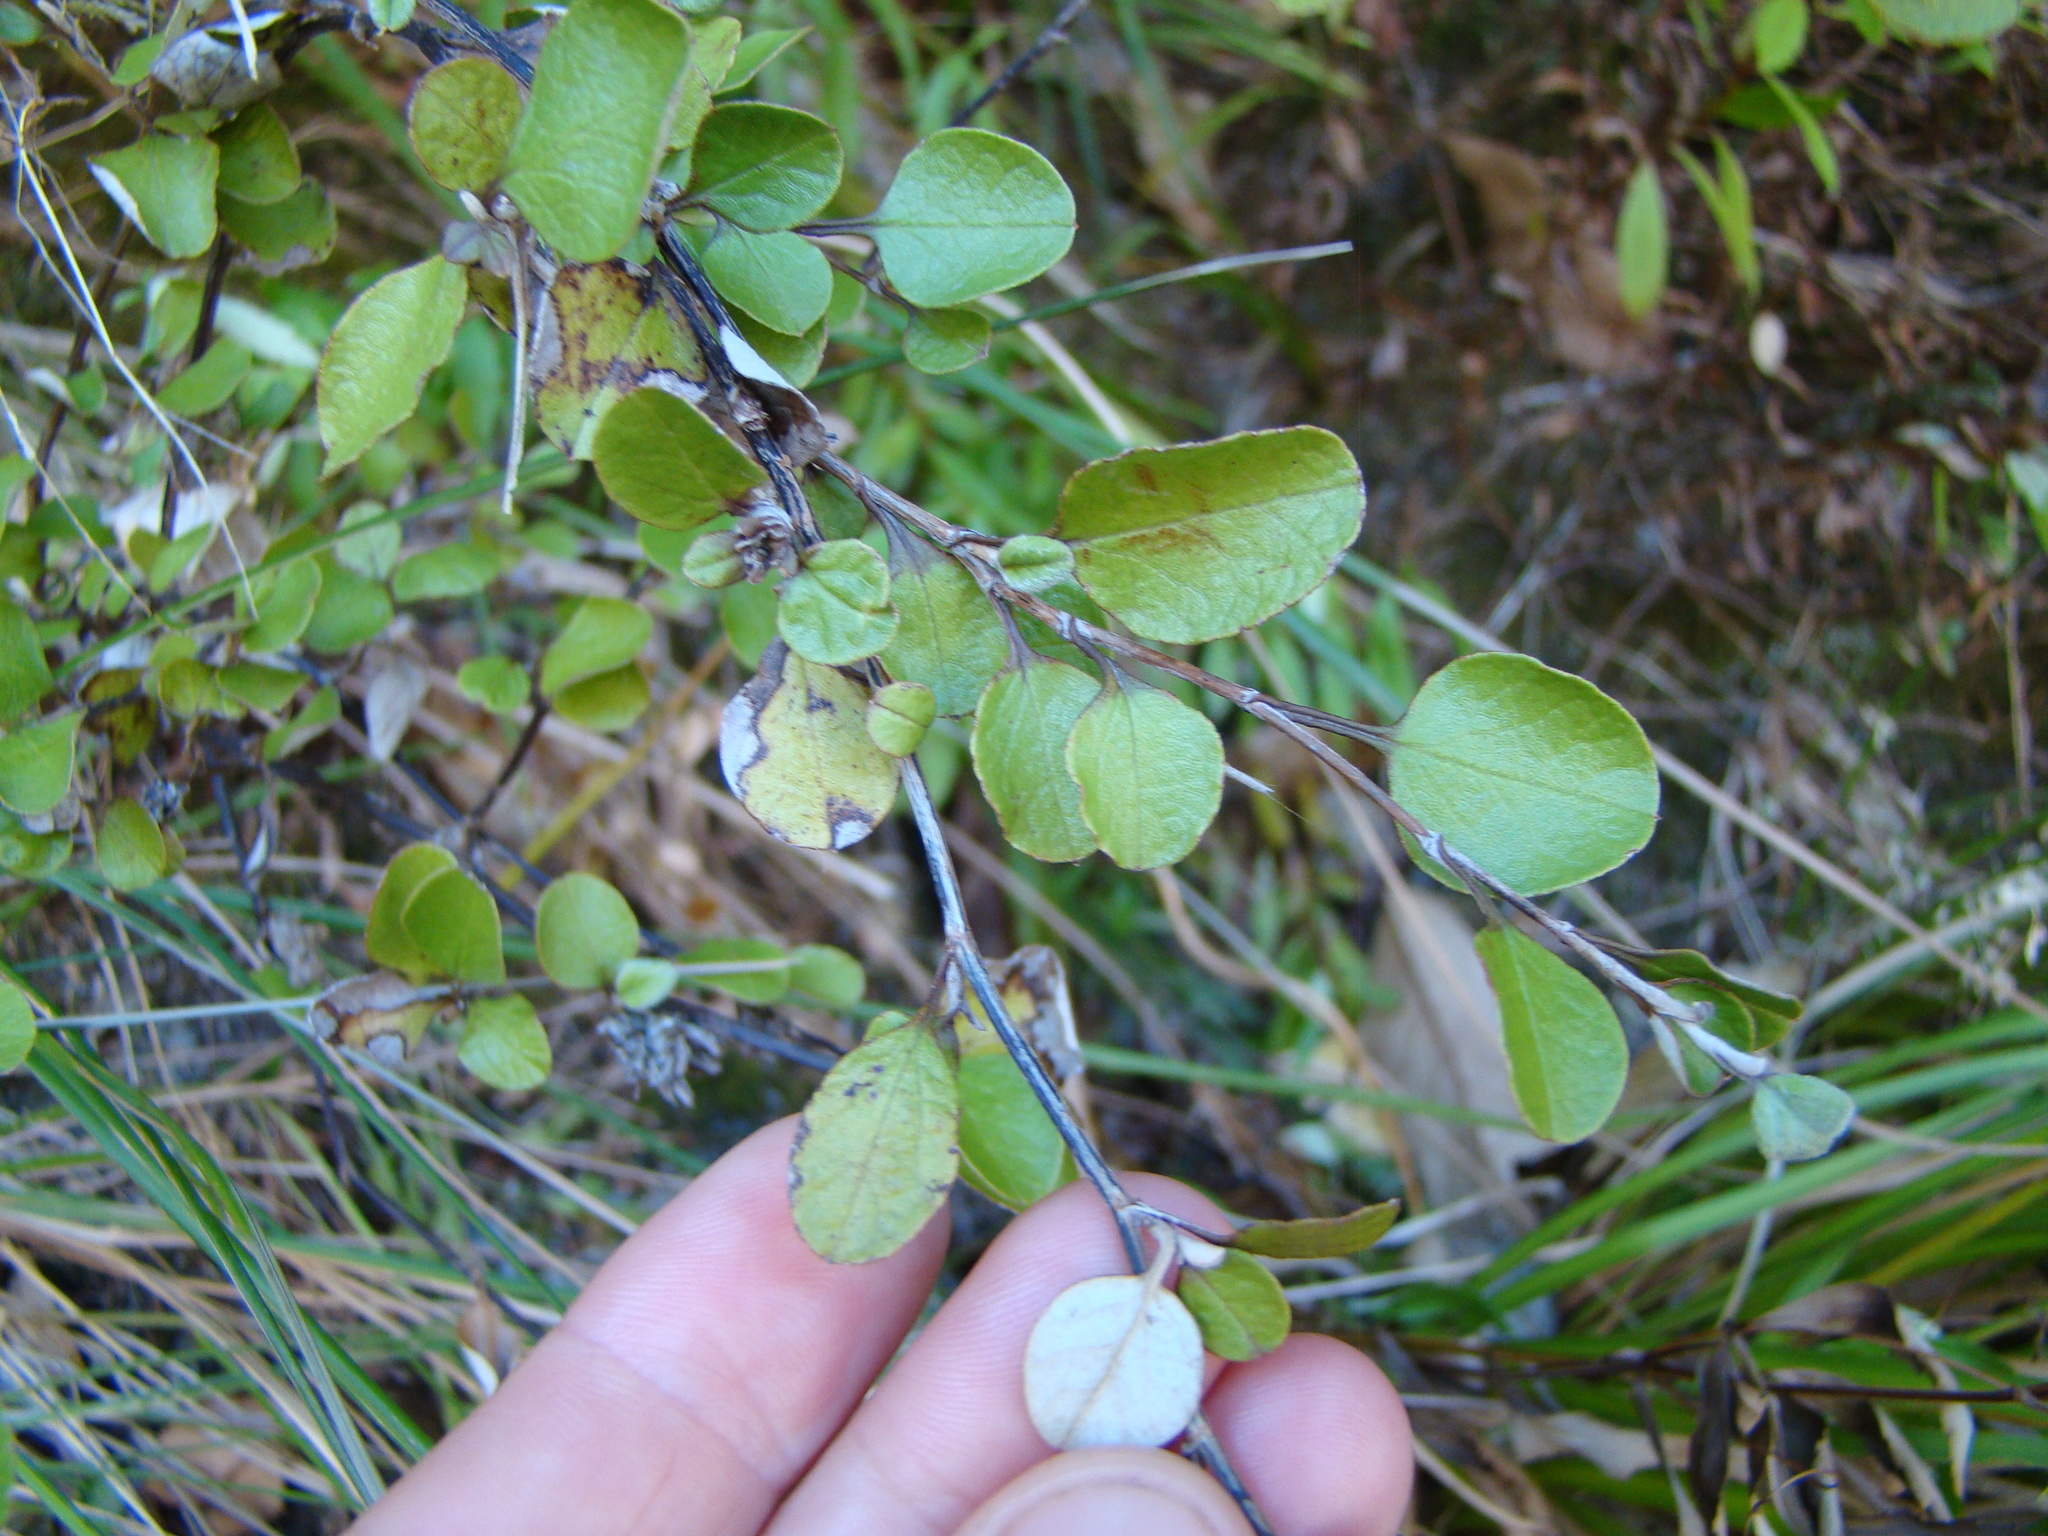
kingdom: Plantae
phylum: Tracheophyta
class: Magnoliopsida
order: Asterales
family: Asteraceae
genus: Ozothamnus
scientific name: Ozothamnus glomeratus
